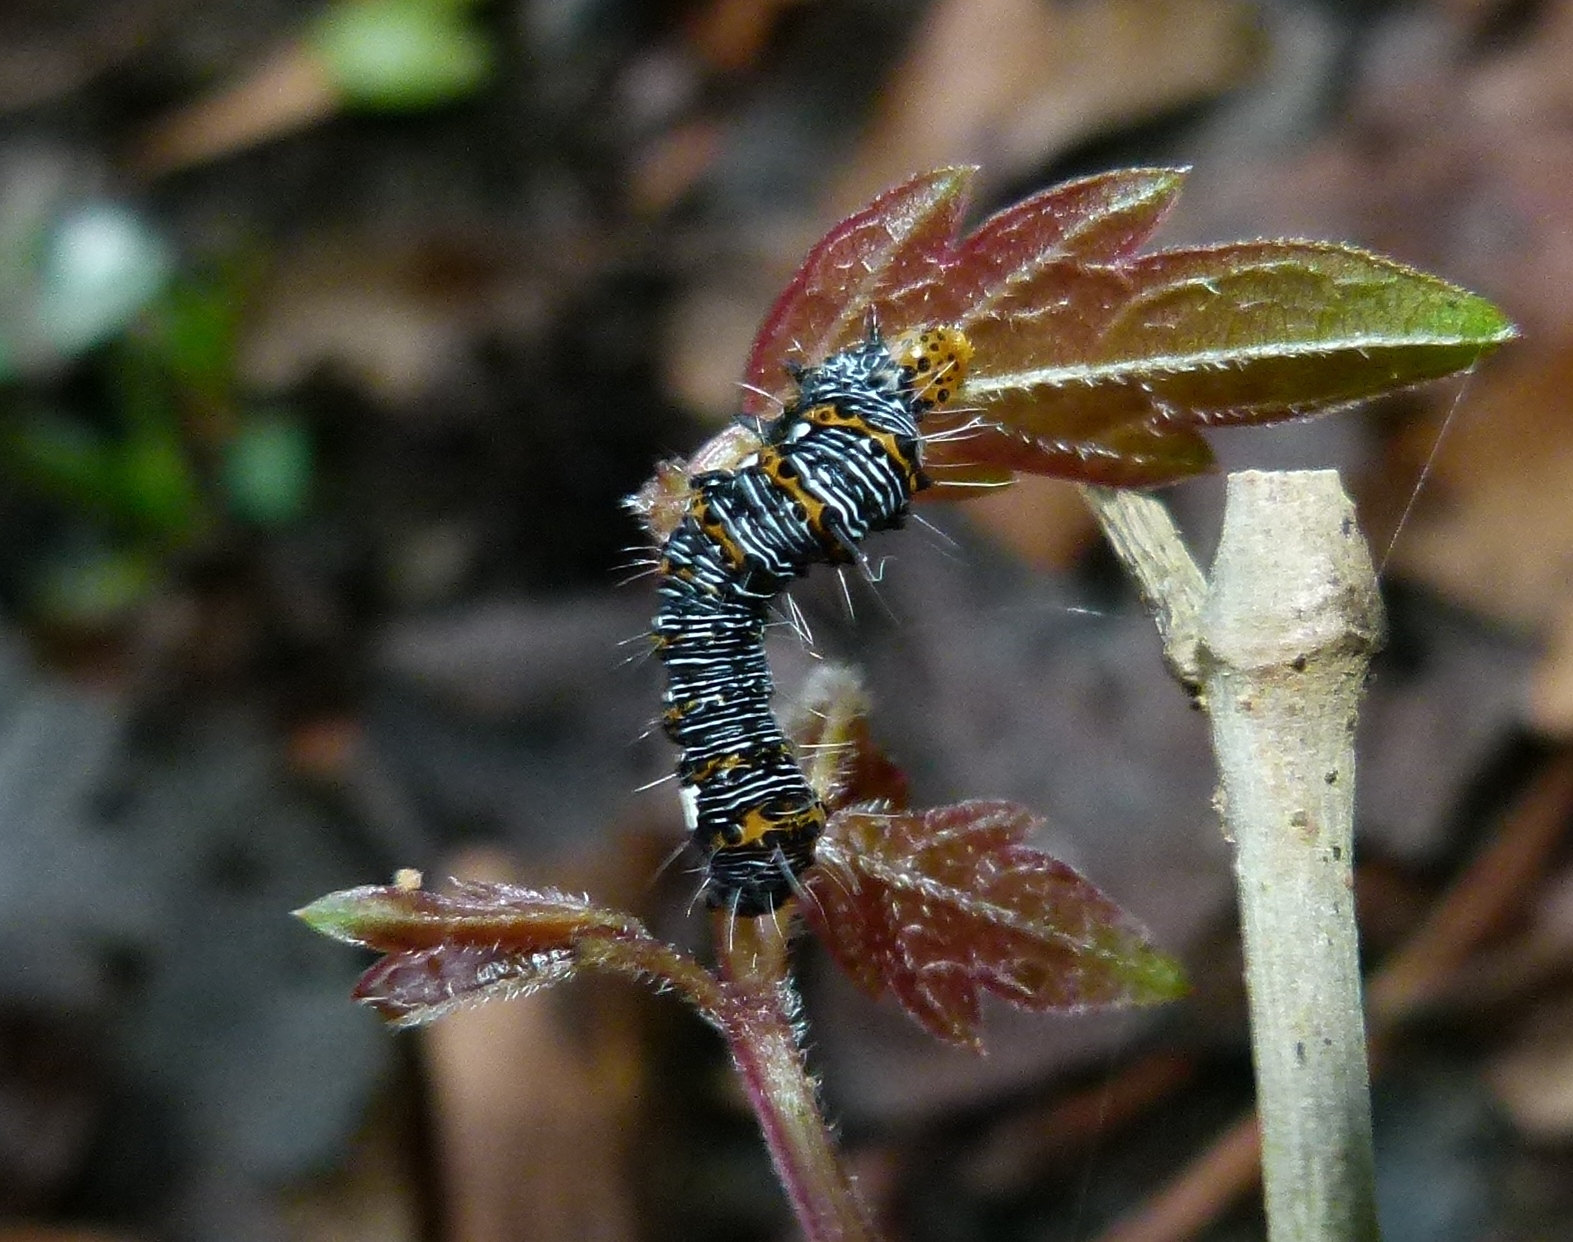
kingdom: Animalia
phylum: Arthropoda
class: Insecta
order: Lepidoptera
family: Noctuidae
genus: Alypia
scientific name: Alypia octomaculata
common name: Eight-spotted forester
